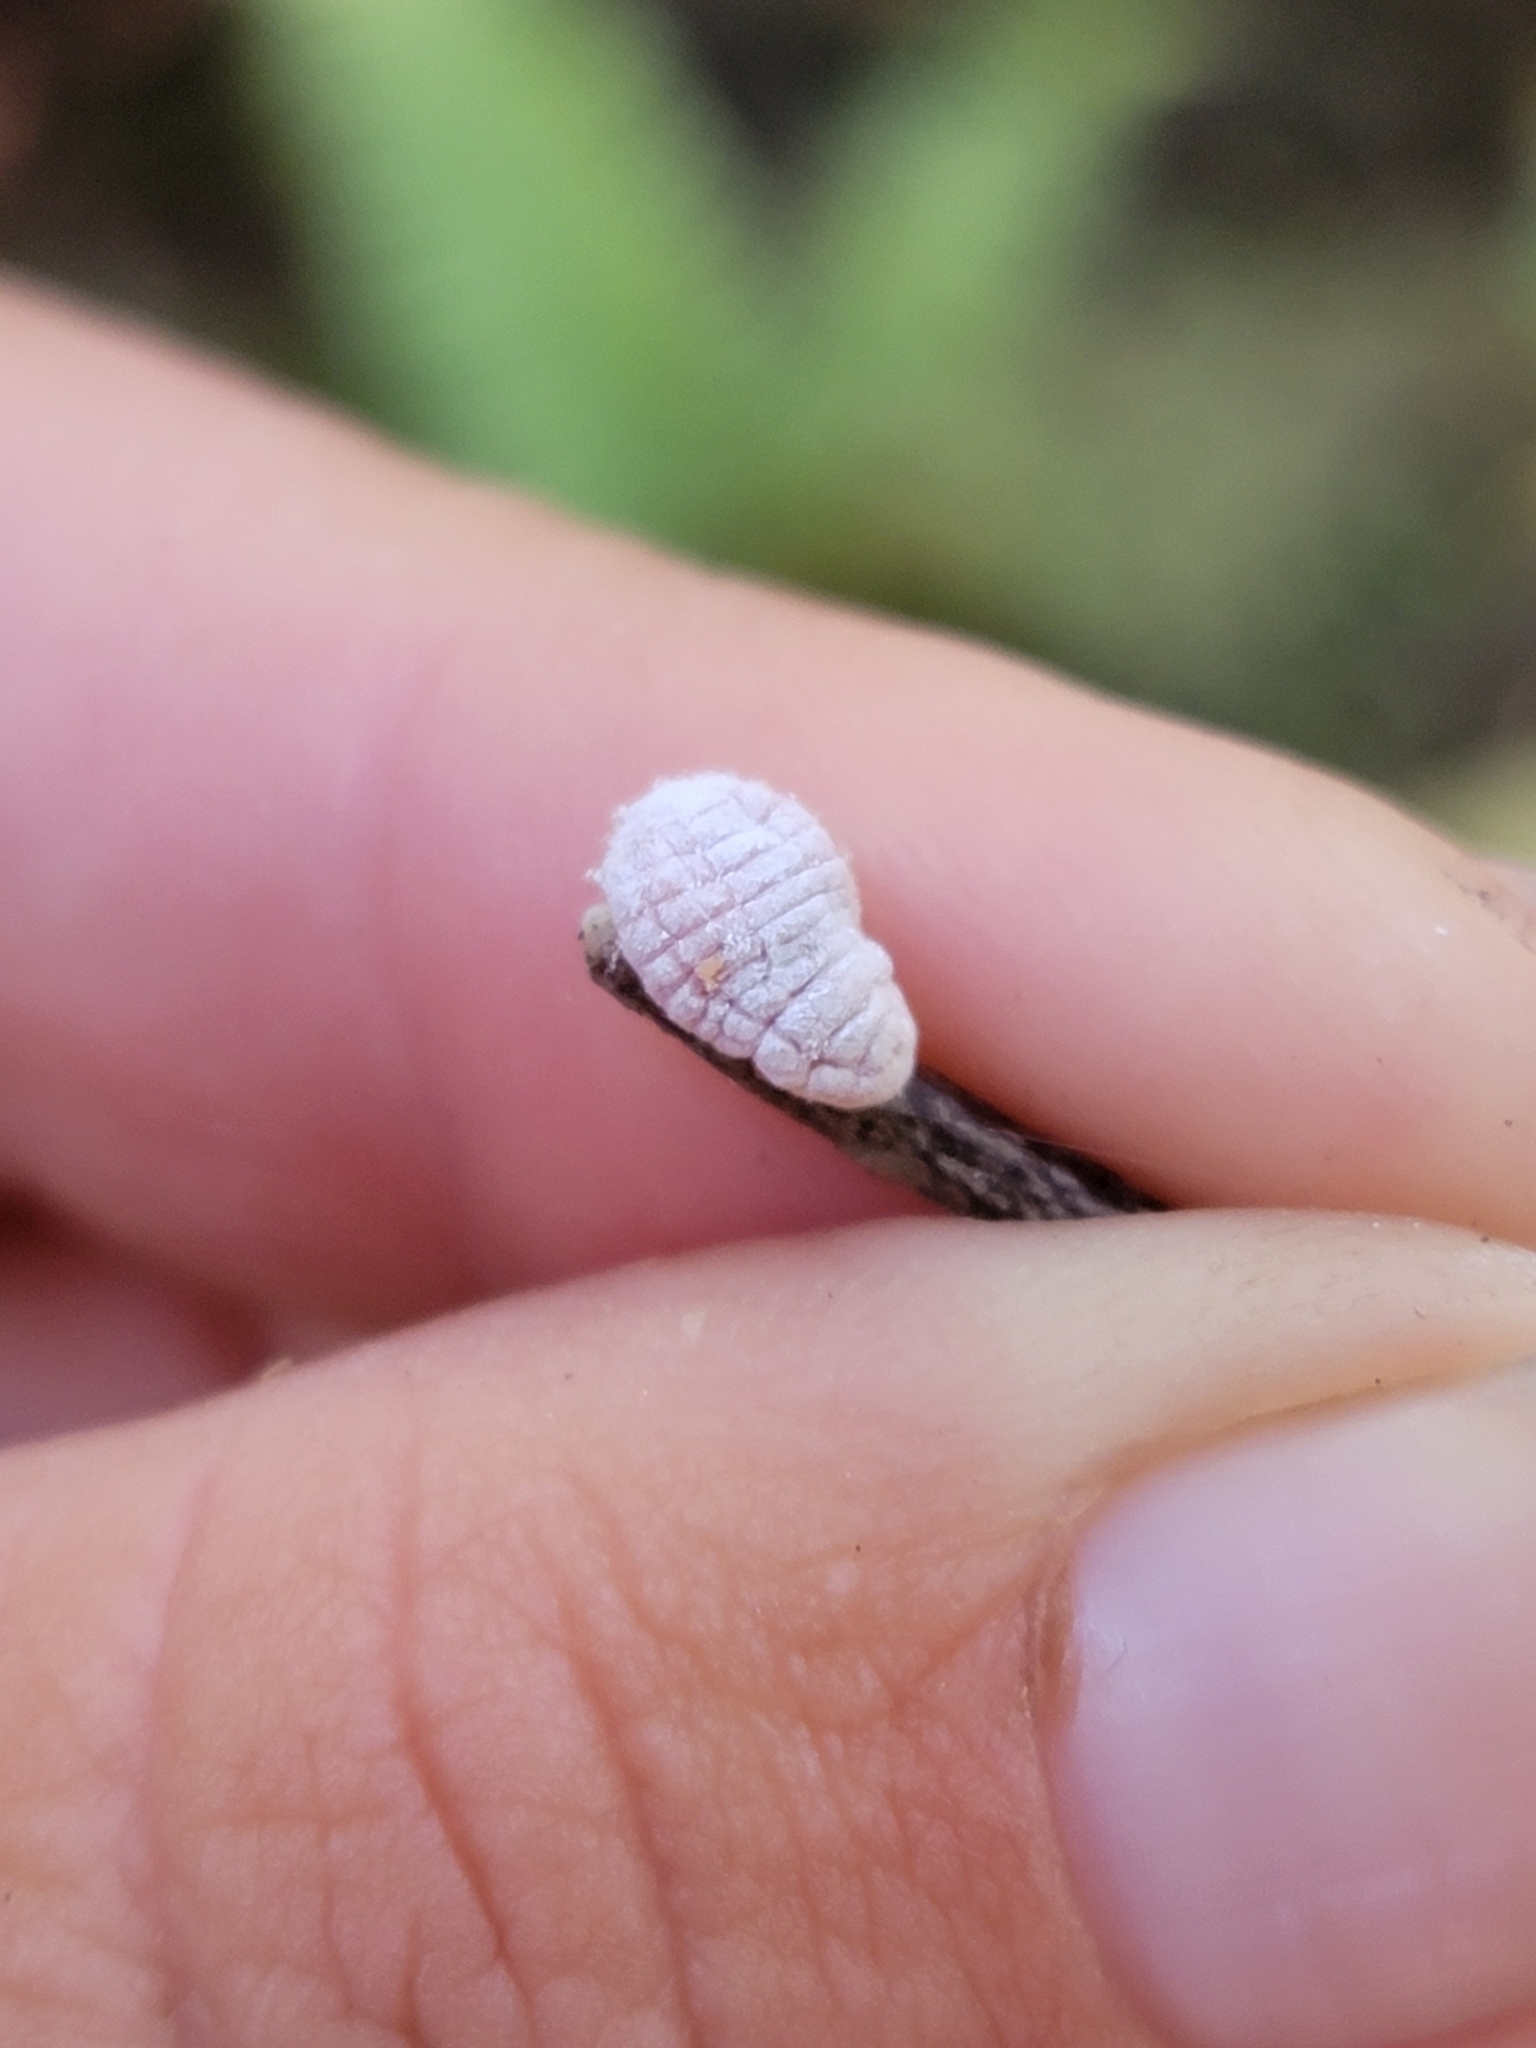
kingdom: Animalia
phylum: Arthropoda
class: Insecta
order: Hemiptera
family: Margarodidae
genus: Coelostomidia
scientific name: Coelostomidia zealandica
